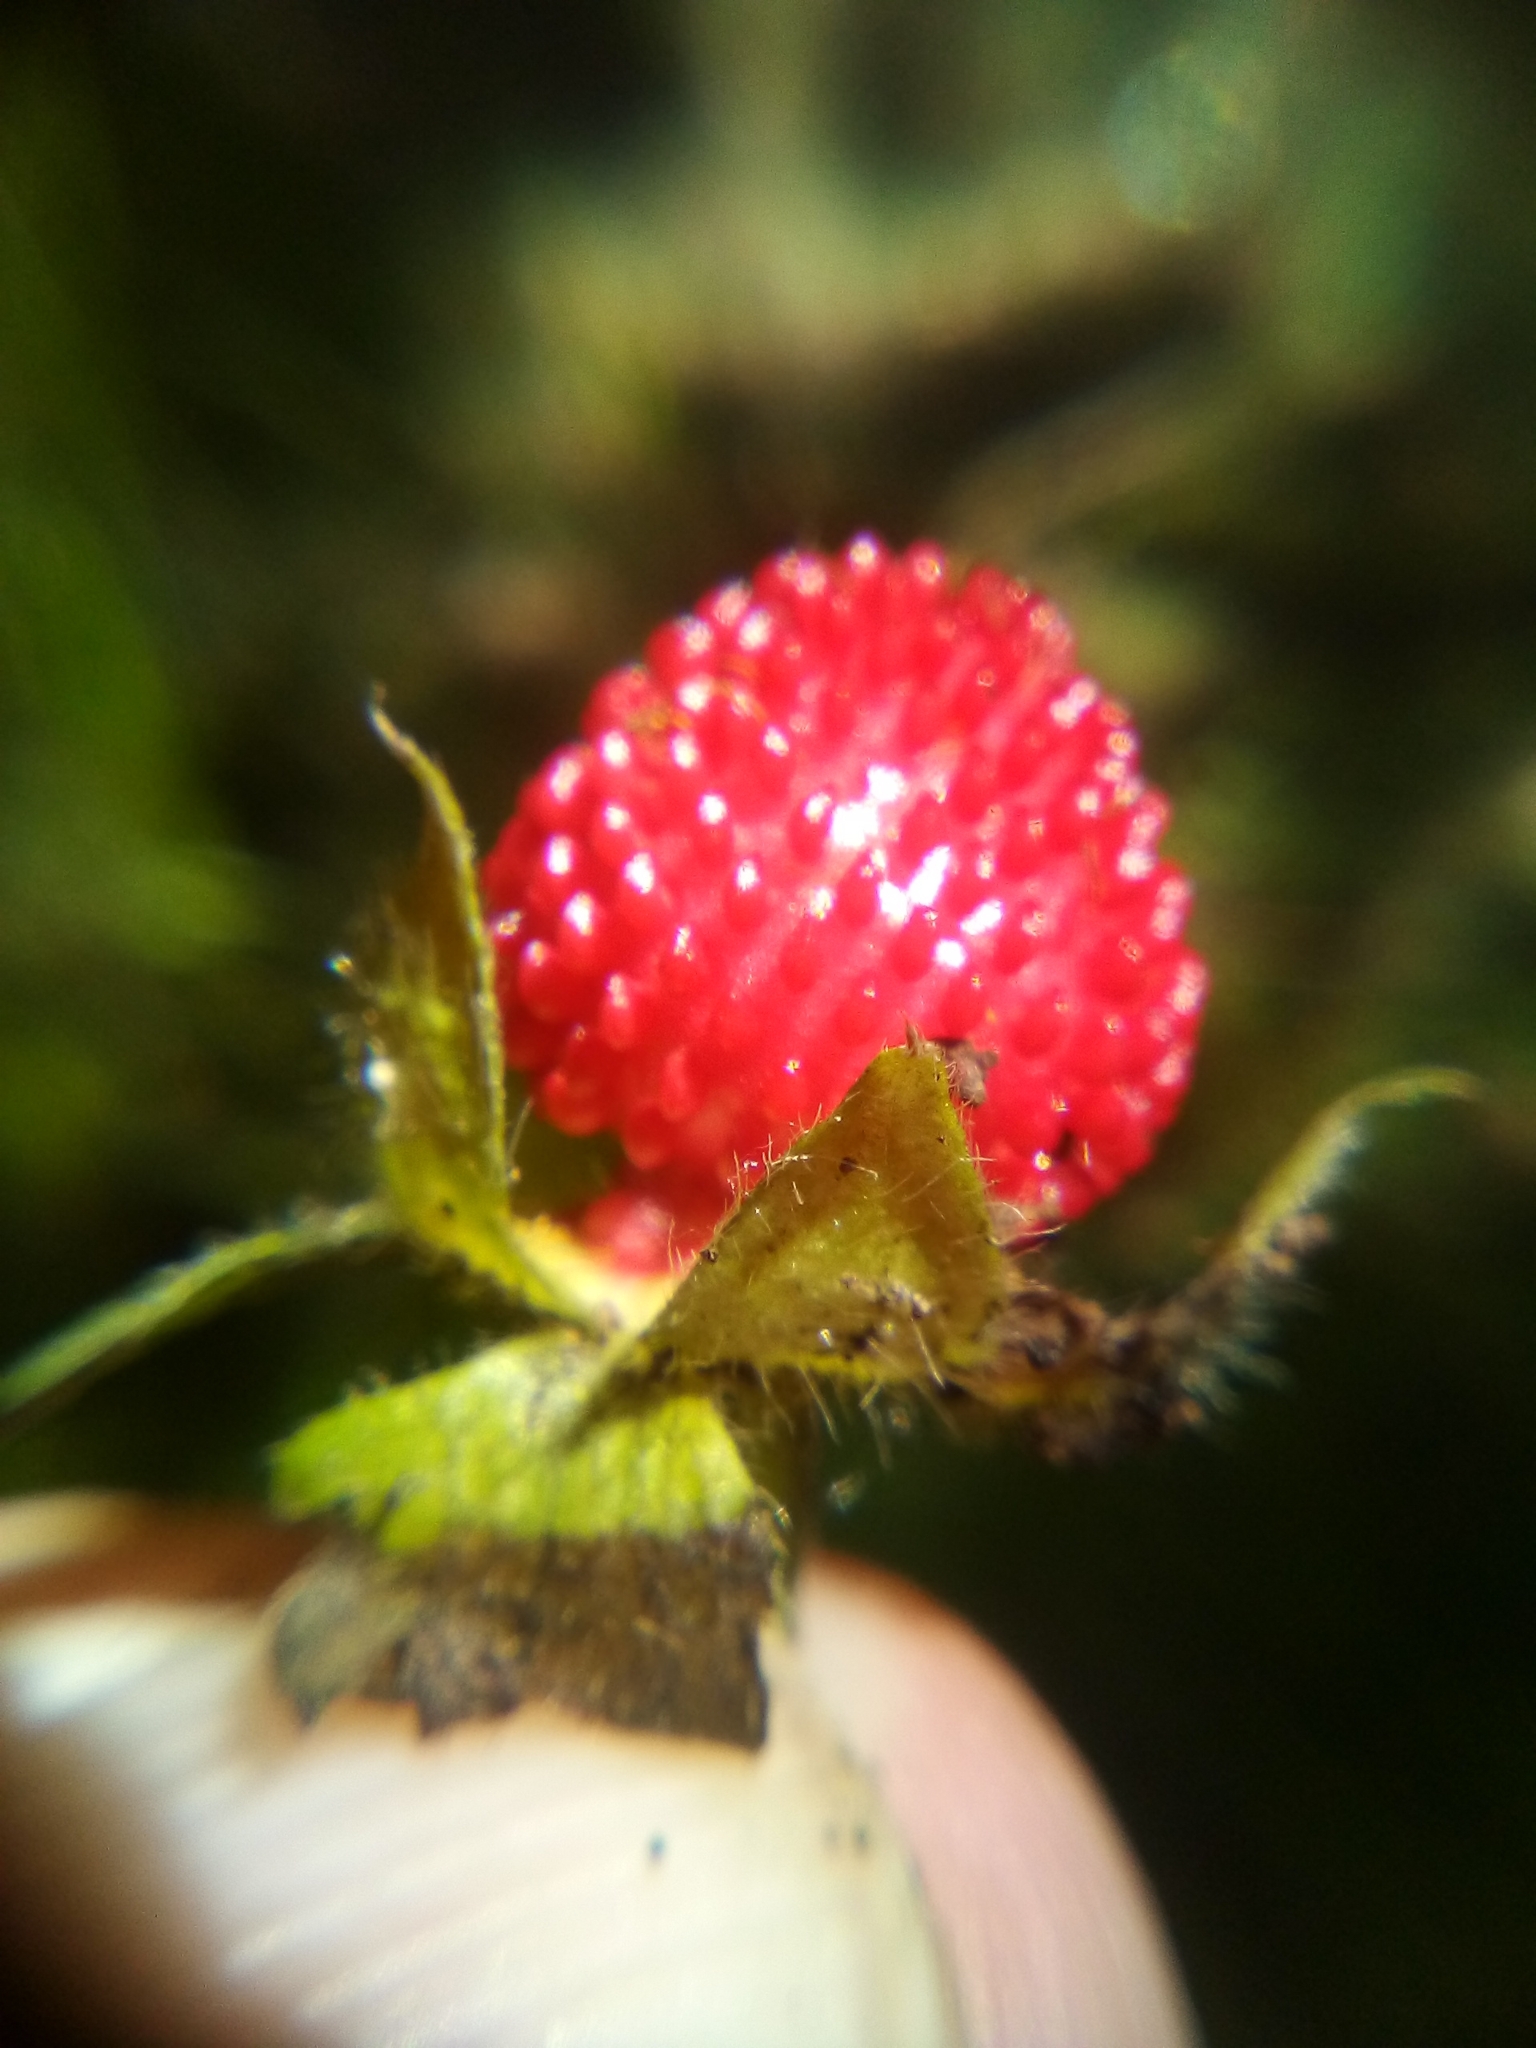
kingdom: Plantae
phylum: Tracheophyta
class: Magnoliopsida
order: Rosales
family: Rosaceae
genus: Potentilla
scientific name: Potentilla indica
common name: Yellow-flowered strawberry
